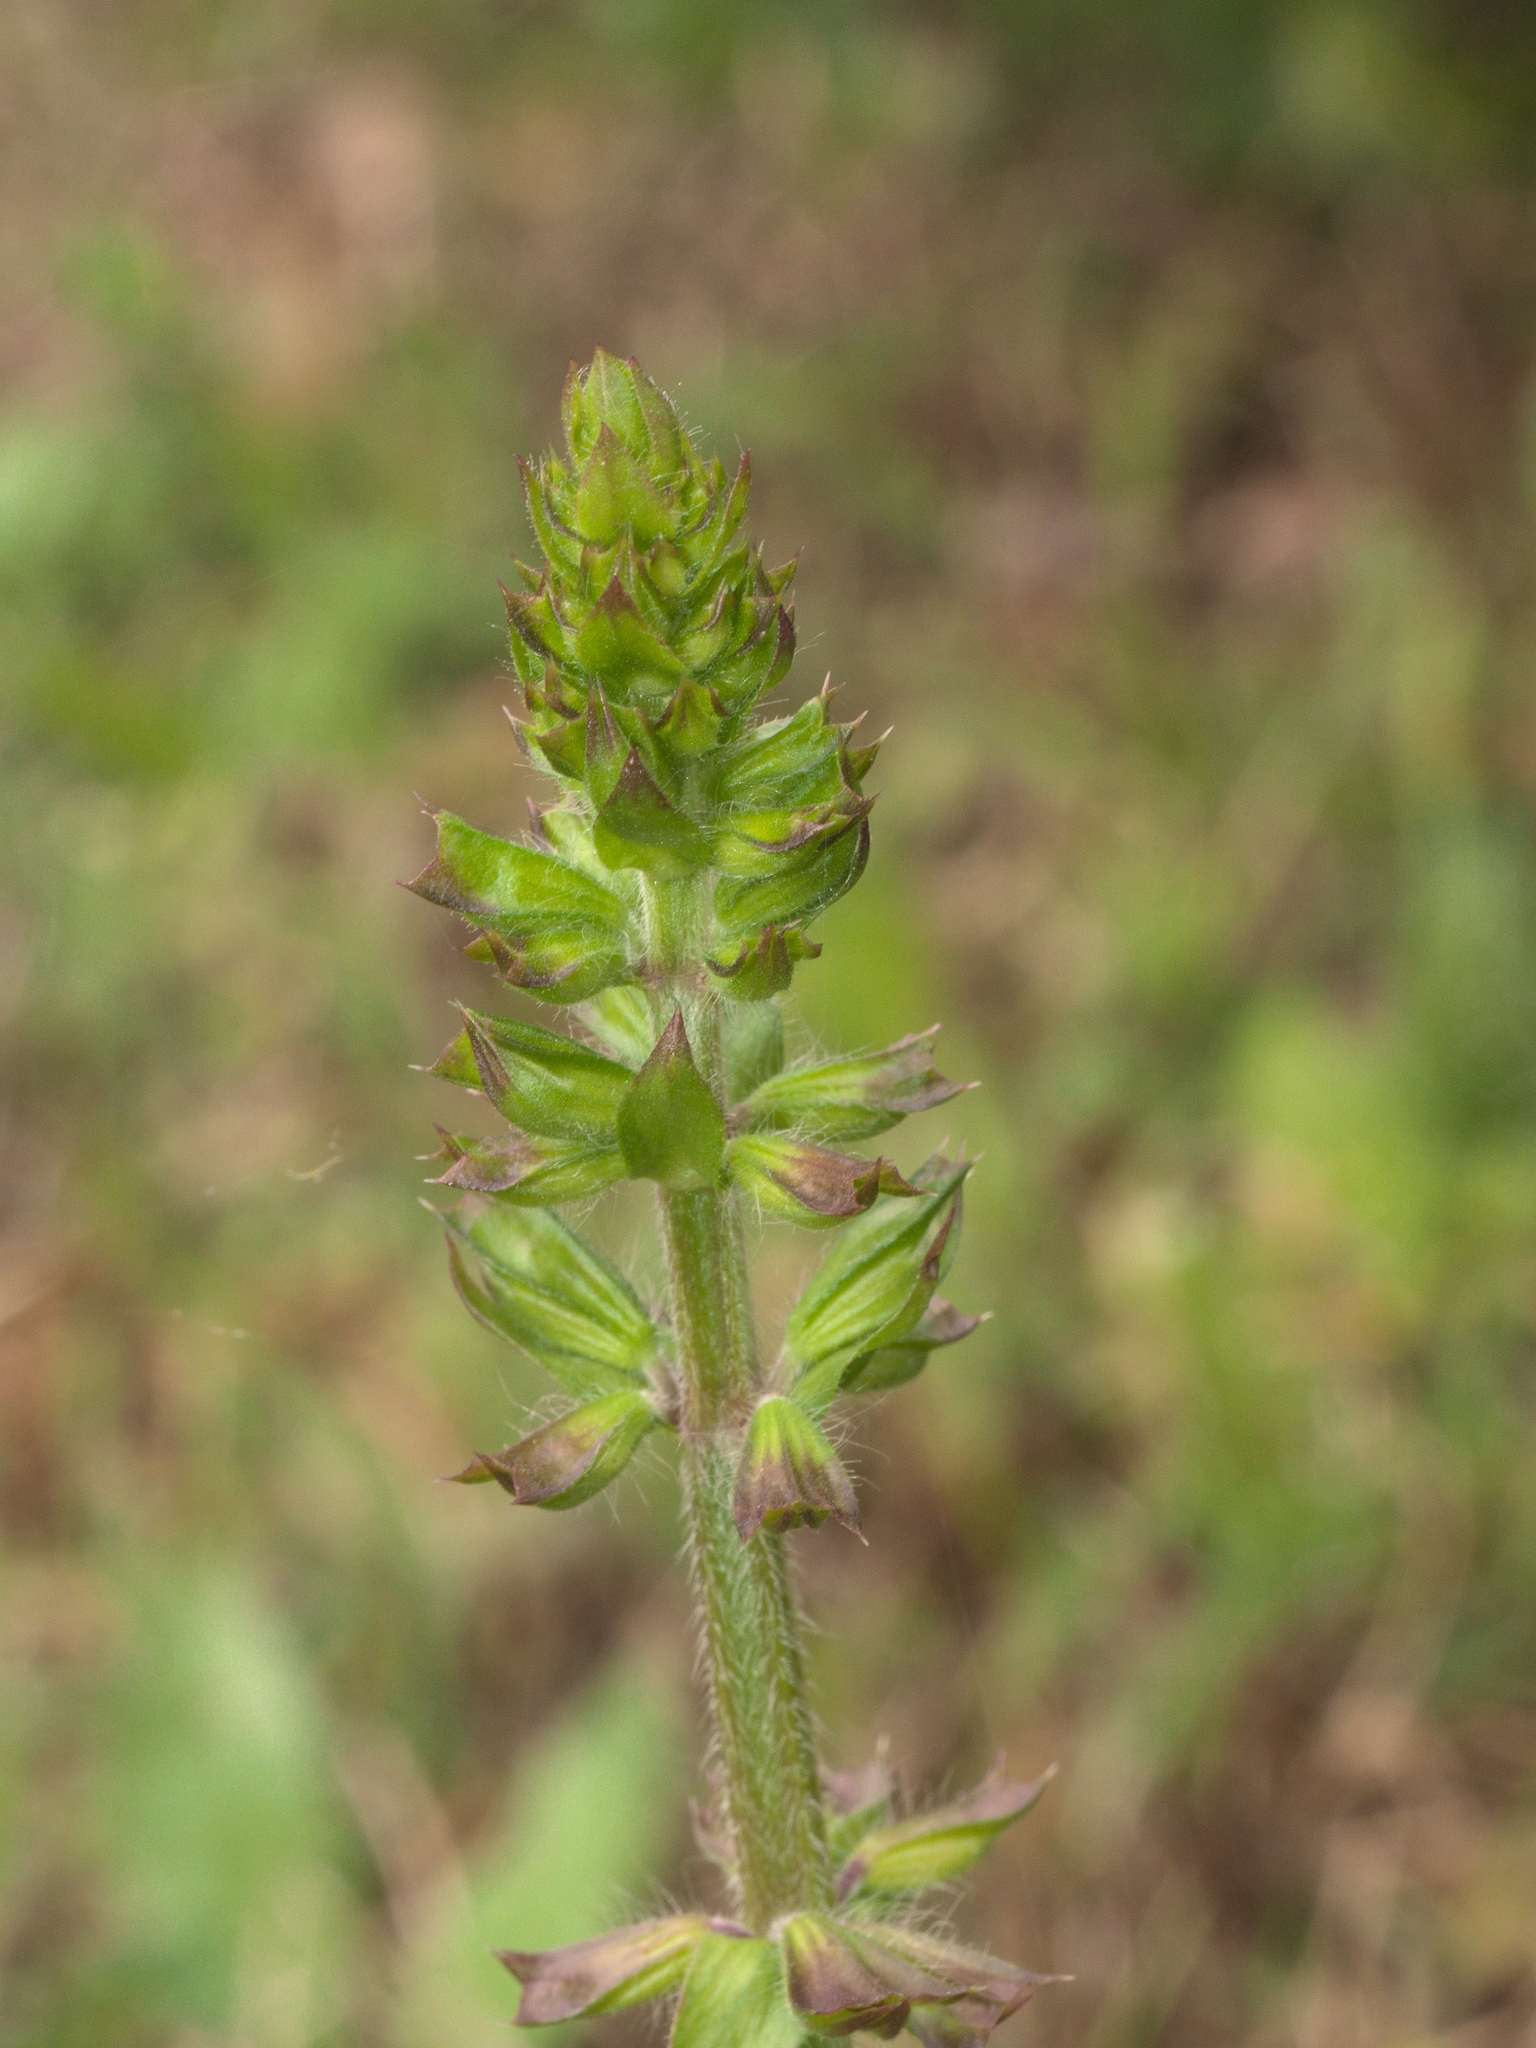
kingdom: Plantae
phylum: Tracheophyta
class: Magnoliopsida
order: Lamiales
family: Lamiaceae
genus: Salvia
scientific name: Salvia lyrata
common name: Cancerweed
